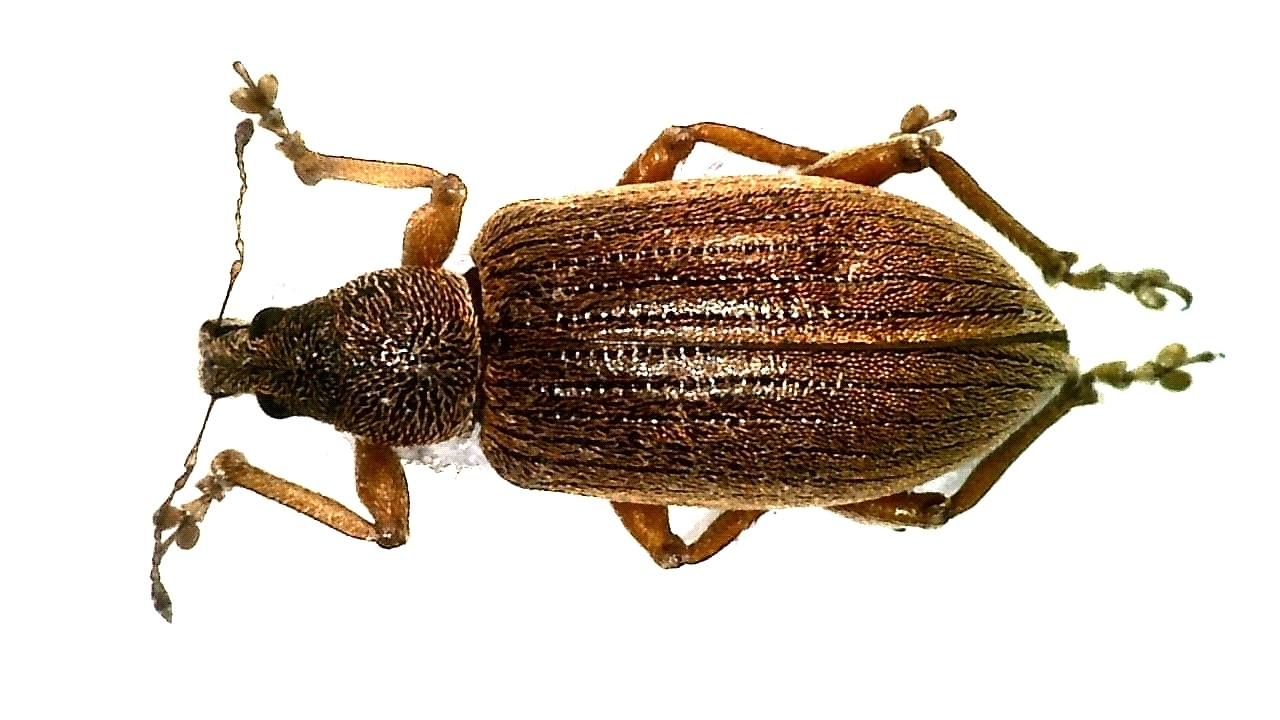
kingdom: Animalia
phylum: Arthropoda
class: Insecta
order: Coleoptera
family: Curculionidae
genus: Polydrusus
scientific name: Polydrusus mollis
